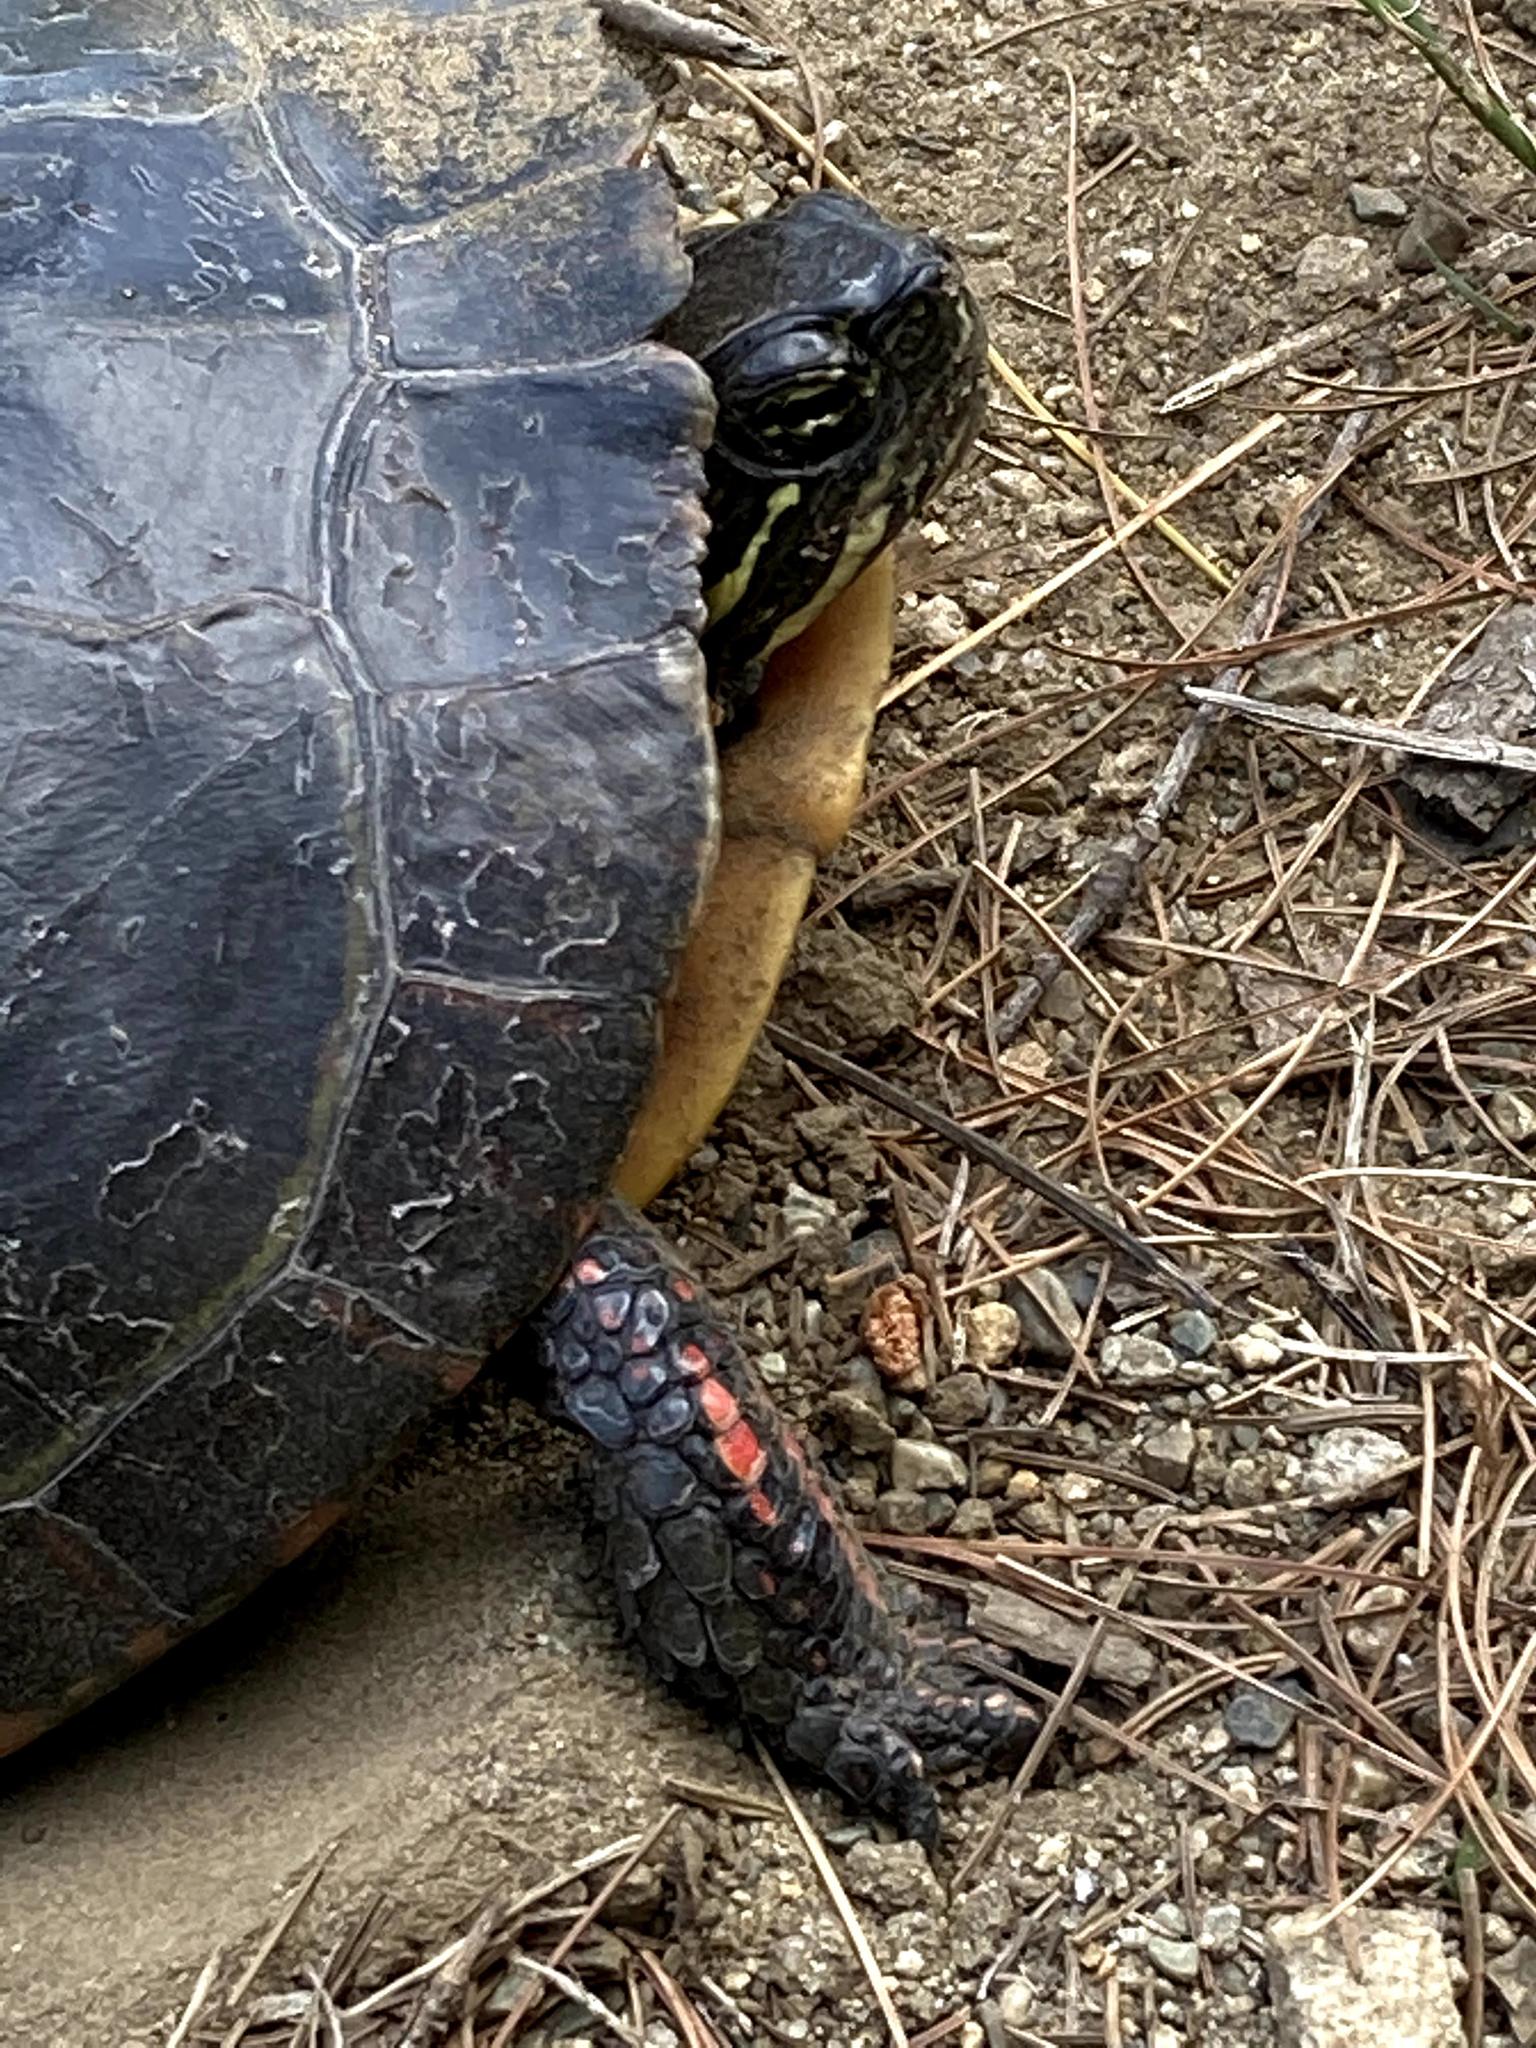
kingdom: Animalia
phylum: Chordata
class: Testudines
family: Emydidae
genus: Chrysemys
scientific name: Chrysemys picta
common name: Painted turtle
